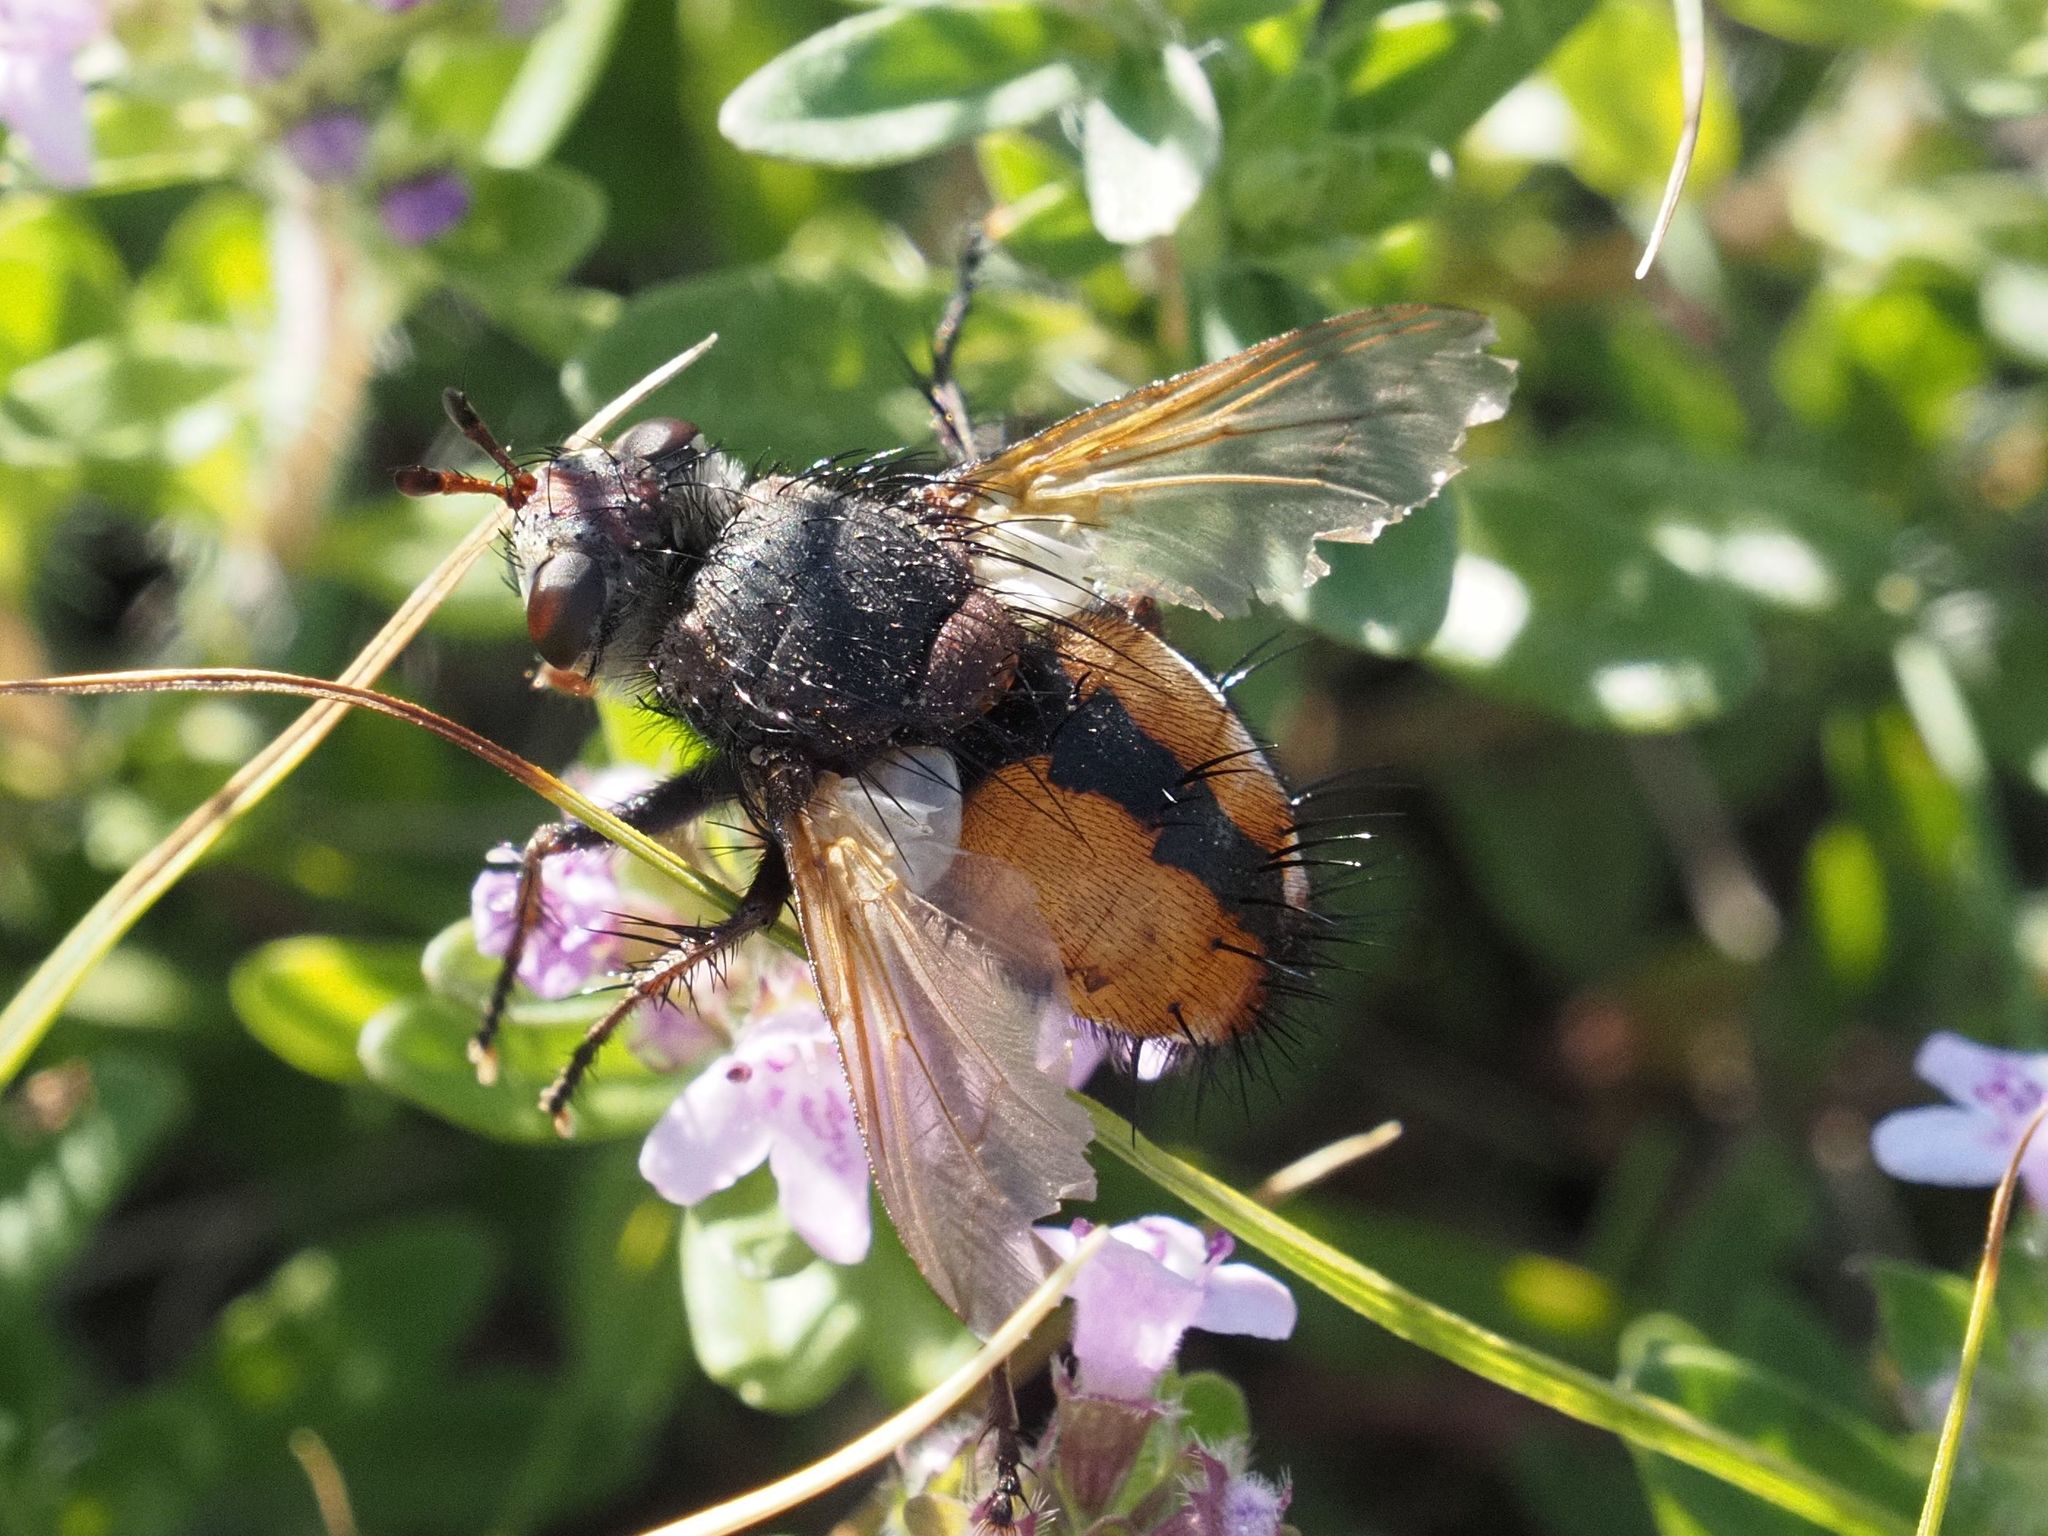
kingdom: Animalia
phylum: Arthropoda
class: Insecta
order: Diptera
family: Tachinidae
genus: Tachina
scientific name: Tachina fera
